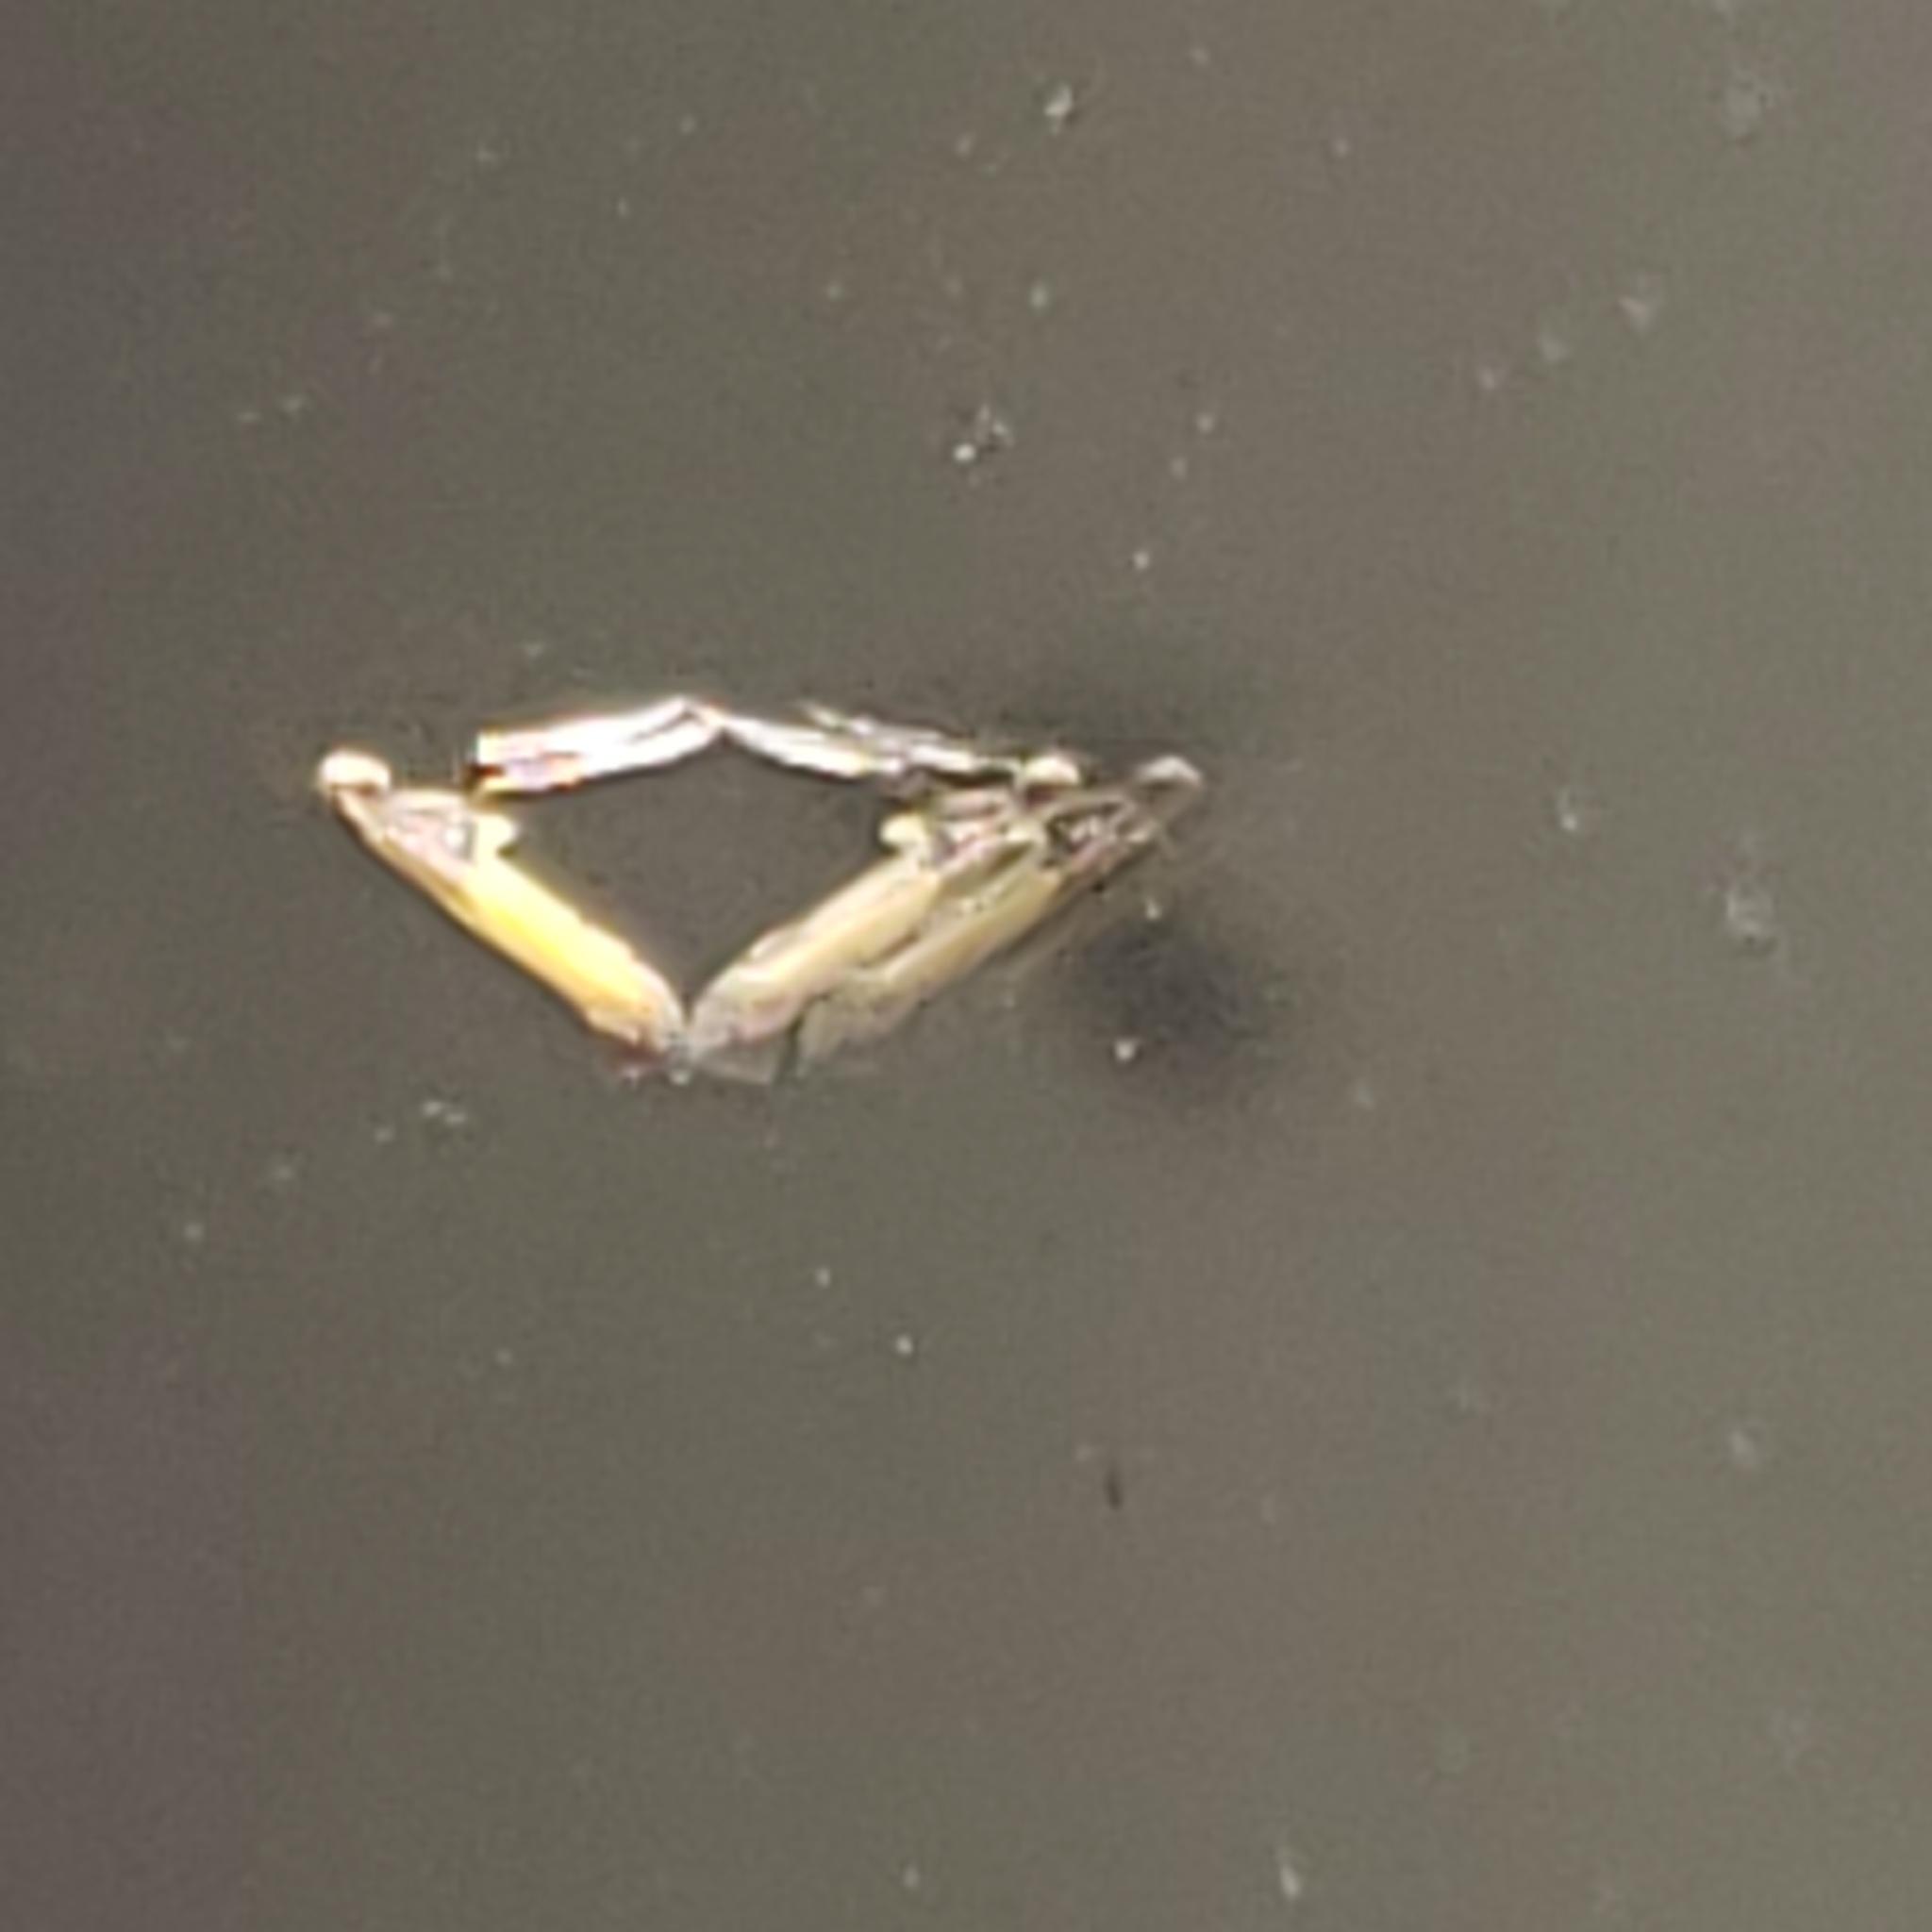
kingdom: Animalia
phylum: Arthropoda
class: Insecta
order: Lepidoptera
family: Gracillariidae
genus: Caloptilia
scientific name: Caloptilia azaleella
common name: Azalea leafminer
